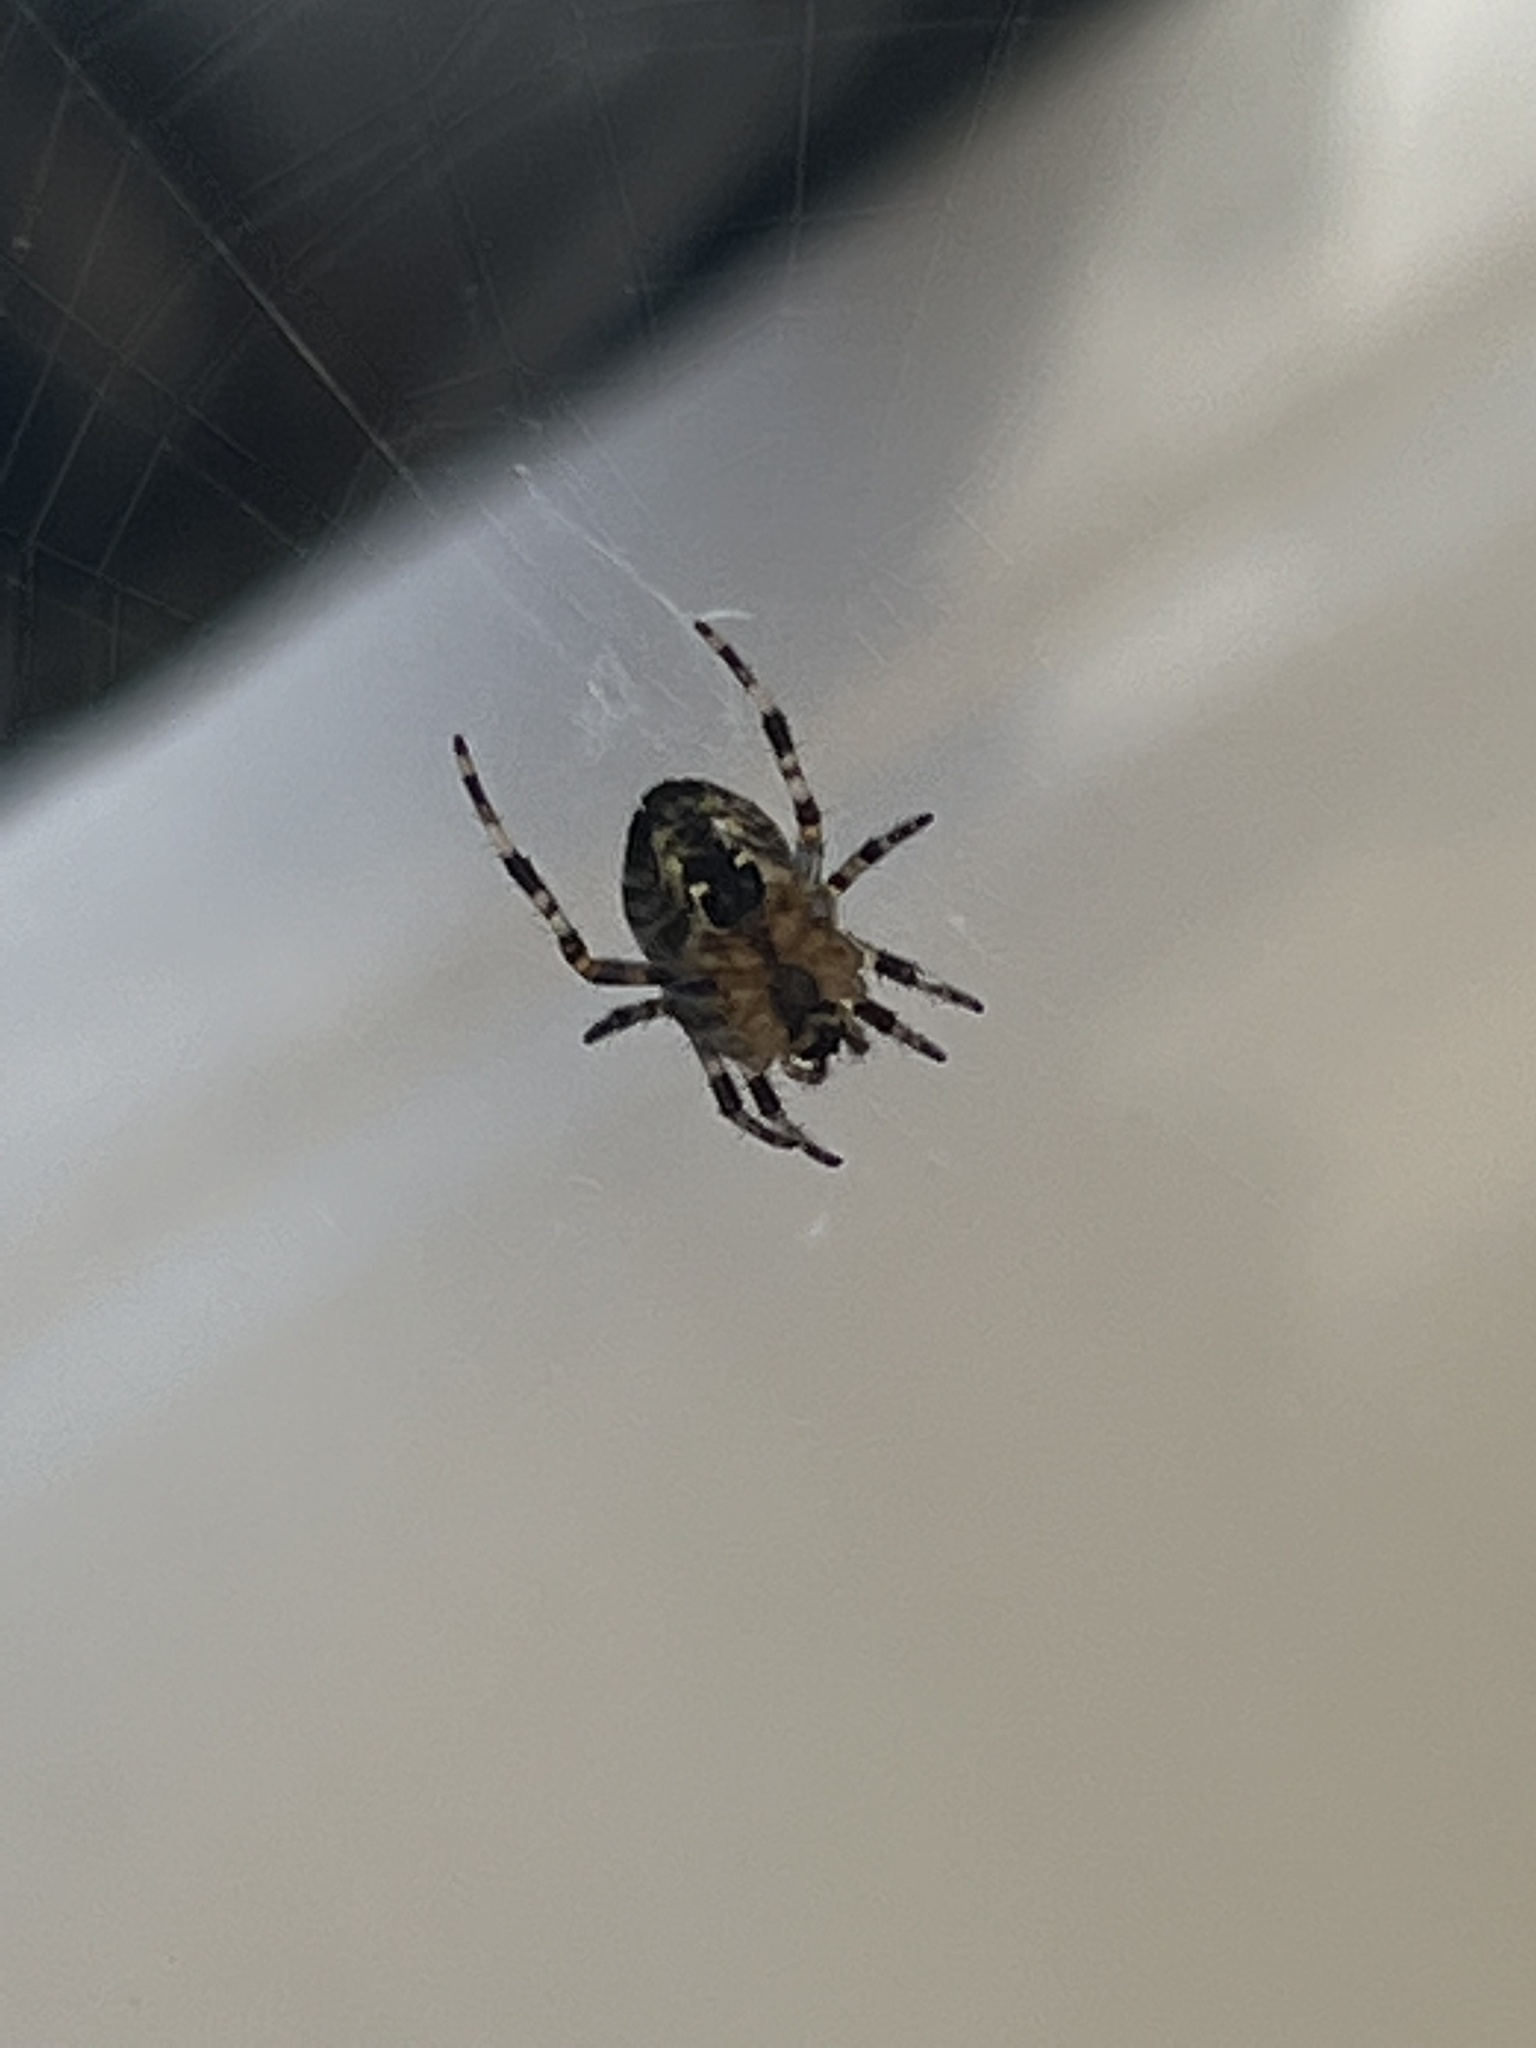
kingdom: Animalia
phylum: Arthropoda
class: Arachnida
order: Araneae
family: Araneidae
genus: Araneus
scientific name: Araneus diadematus
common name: Cross orbweaver
